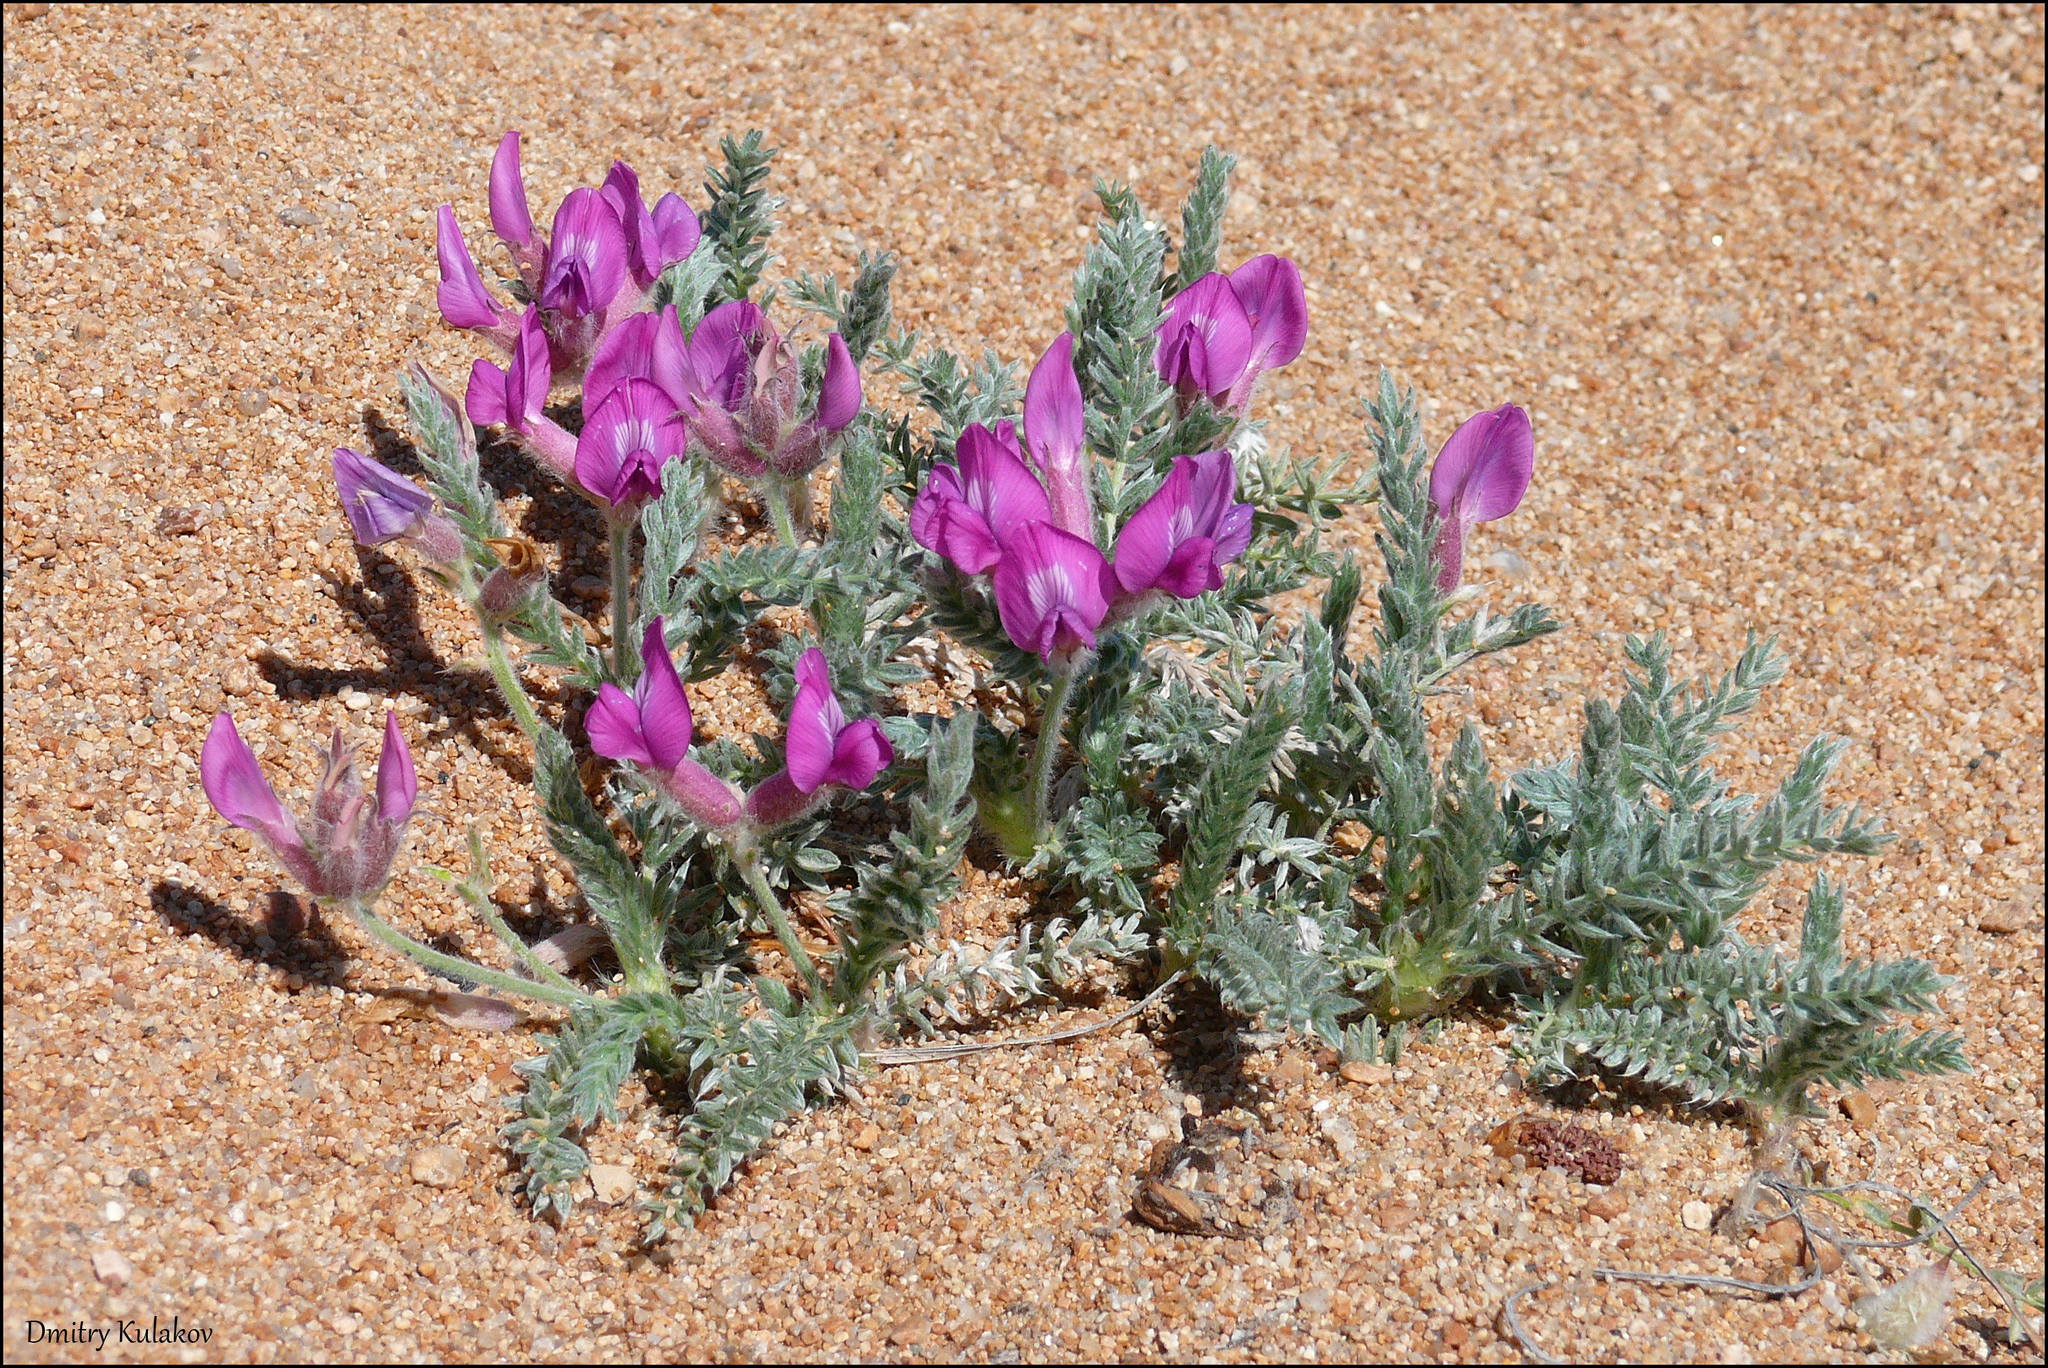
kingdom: Plantae
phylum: Tracheophyta
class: Magnoliopsida
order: Fabales
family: Fabaceae
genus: Oxytropis
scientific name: Oxytropis lanata
